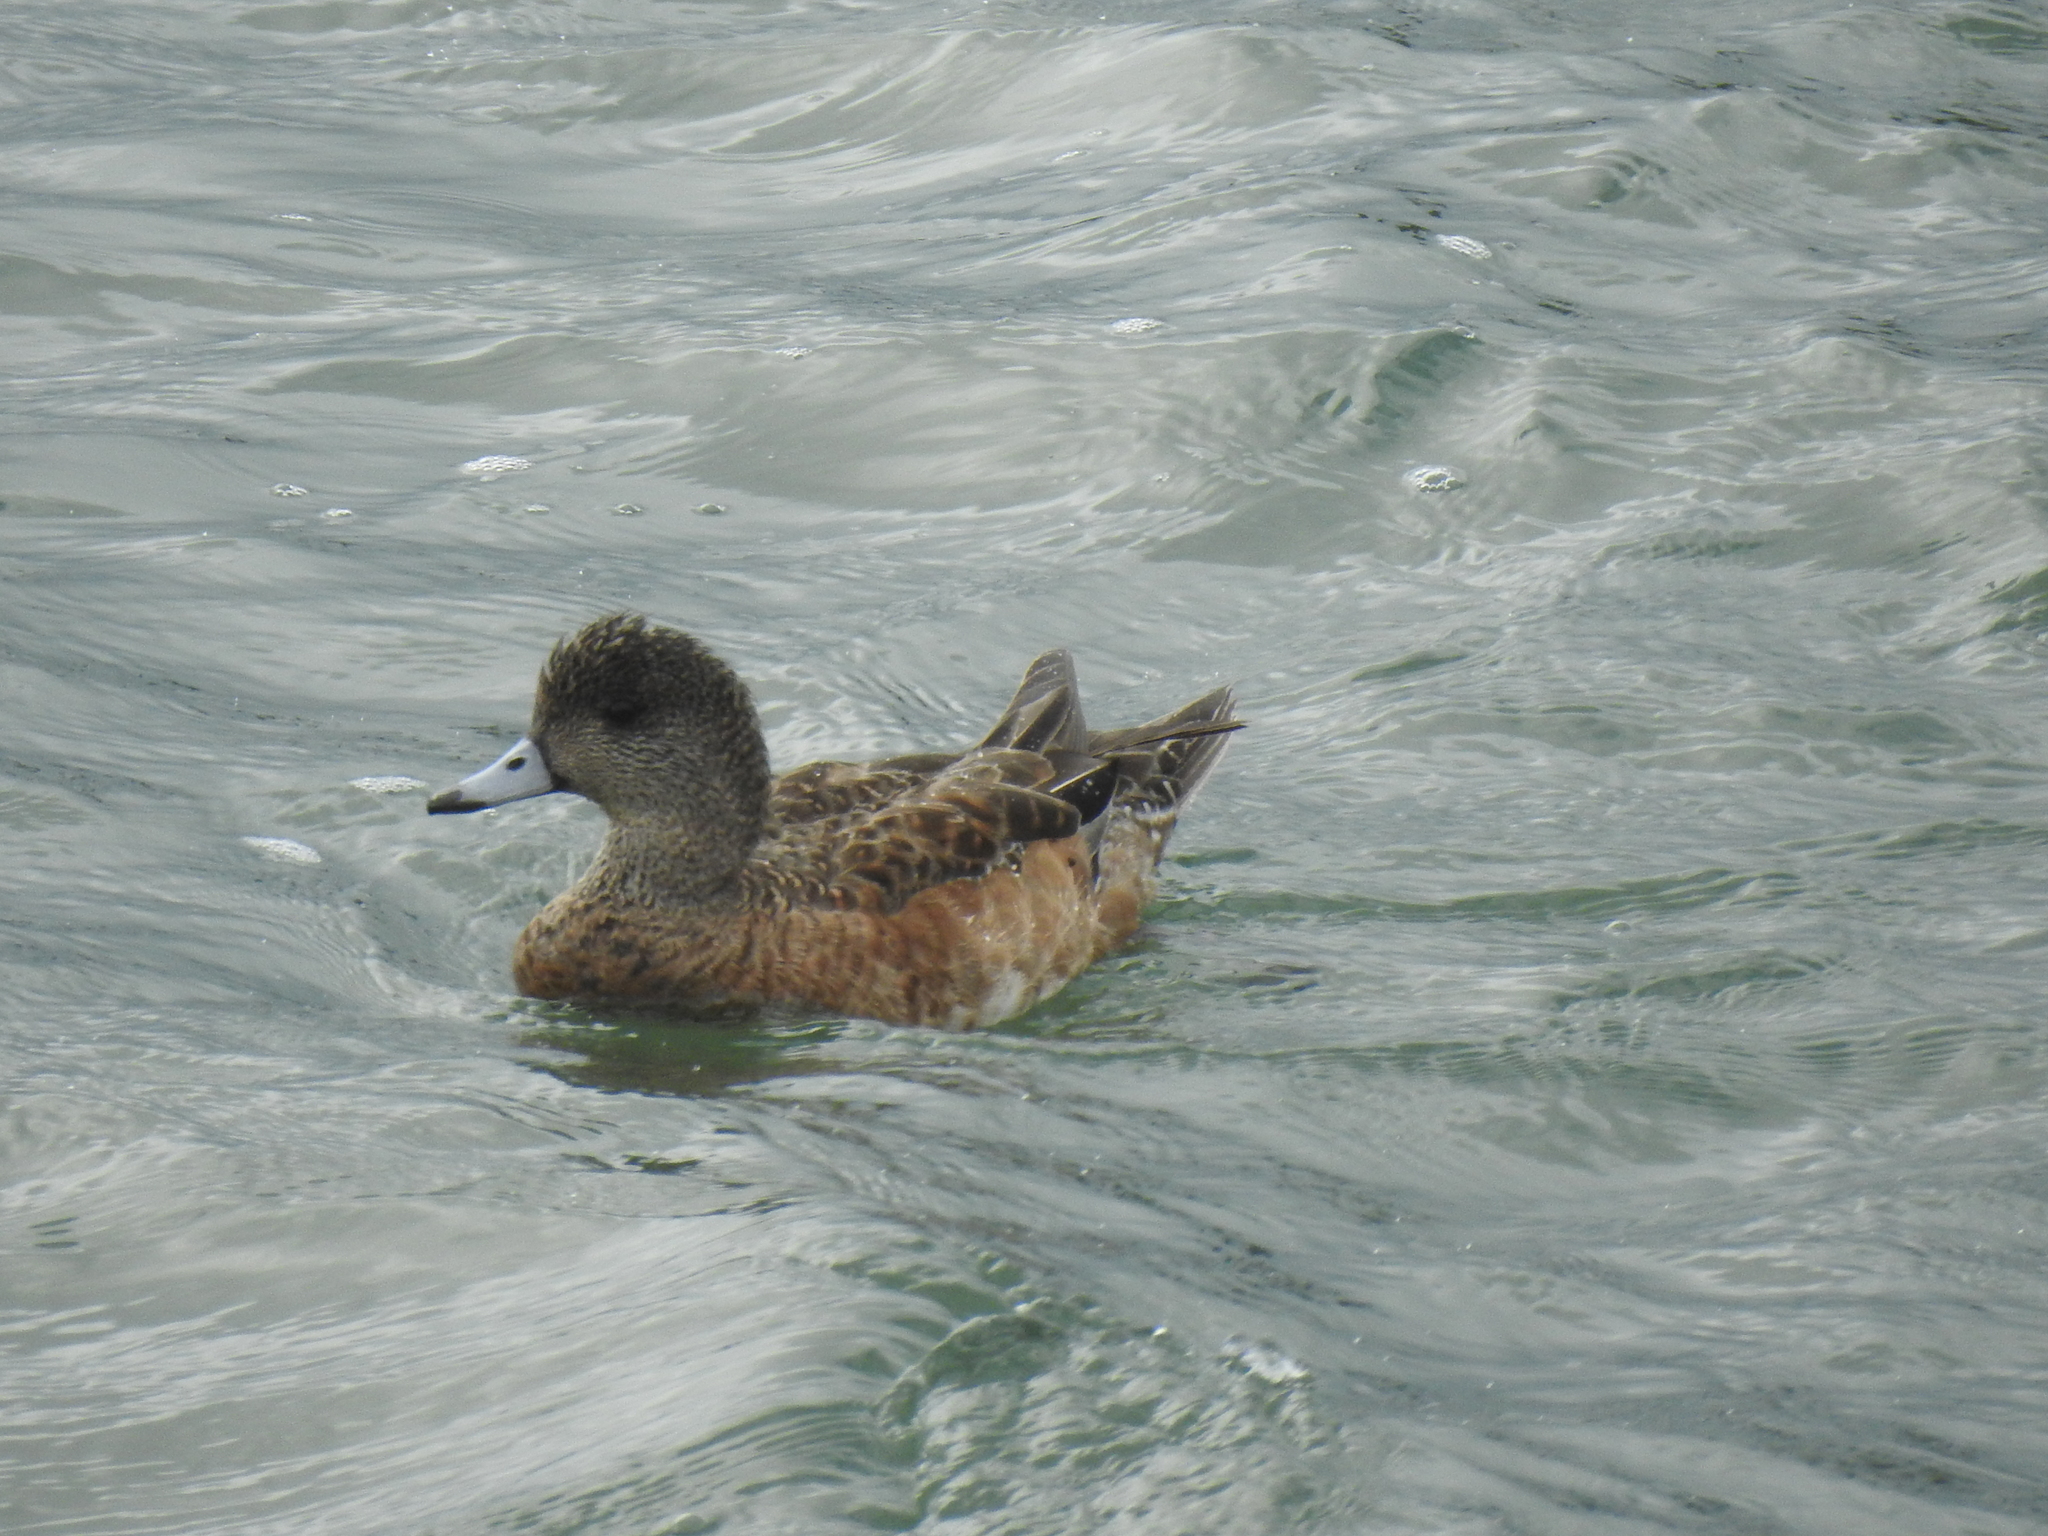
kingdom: Animalia
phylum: Chordata
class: Aves
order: Anseriformes
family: Anatidae
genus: Mareca
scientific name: Mareca americana
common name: American wigeon
